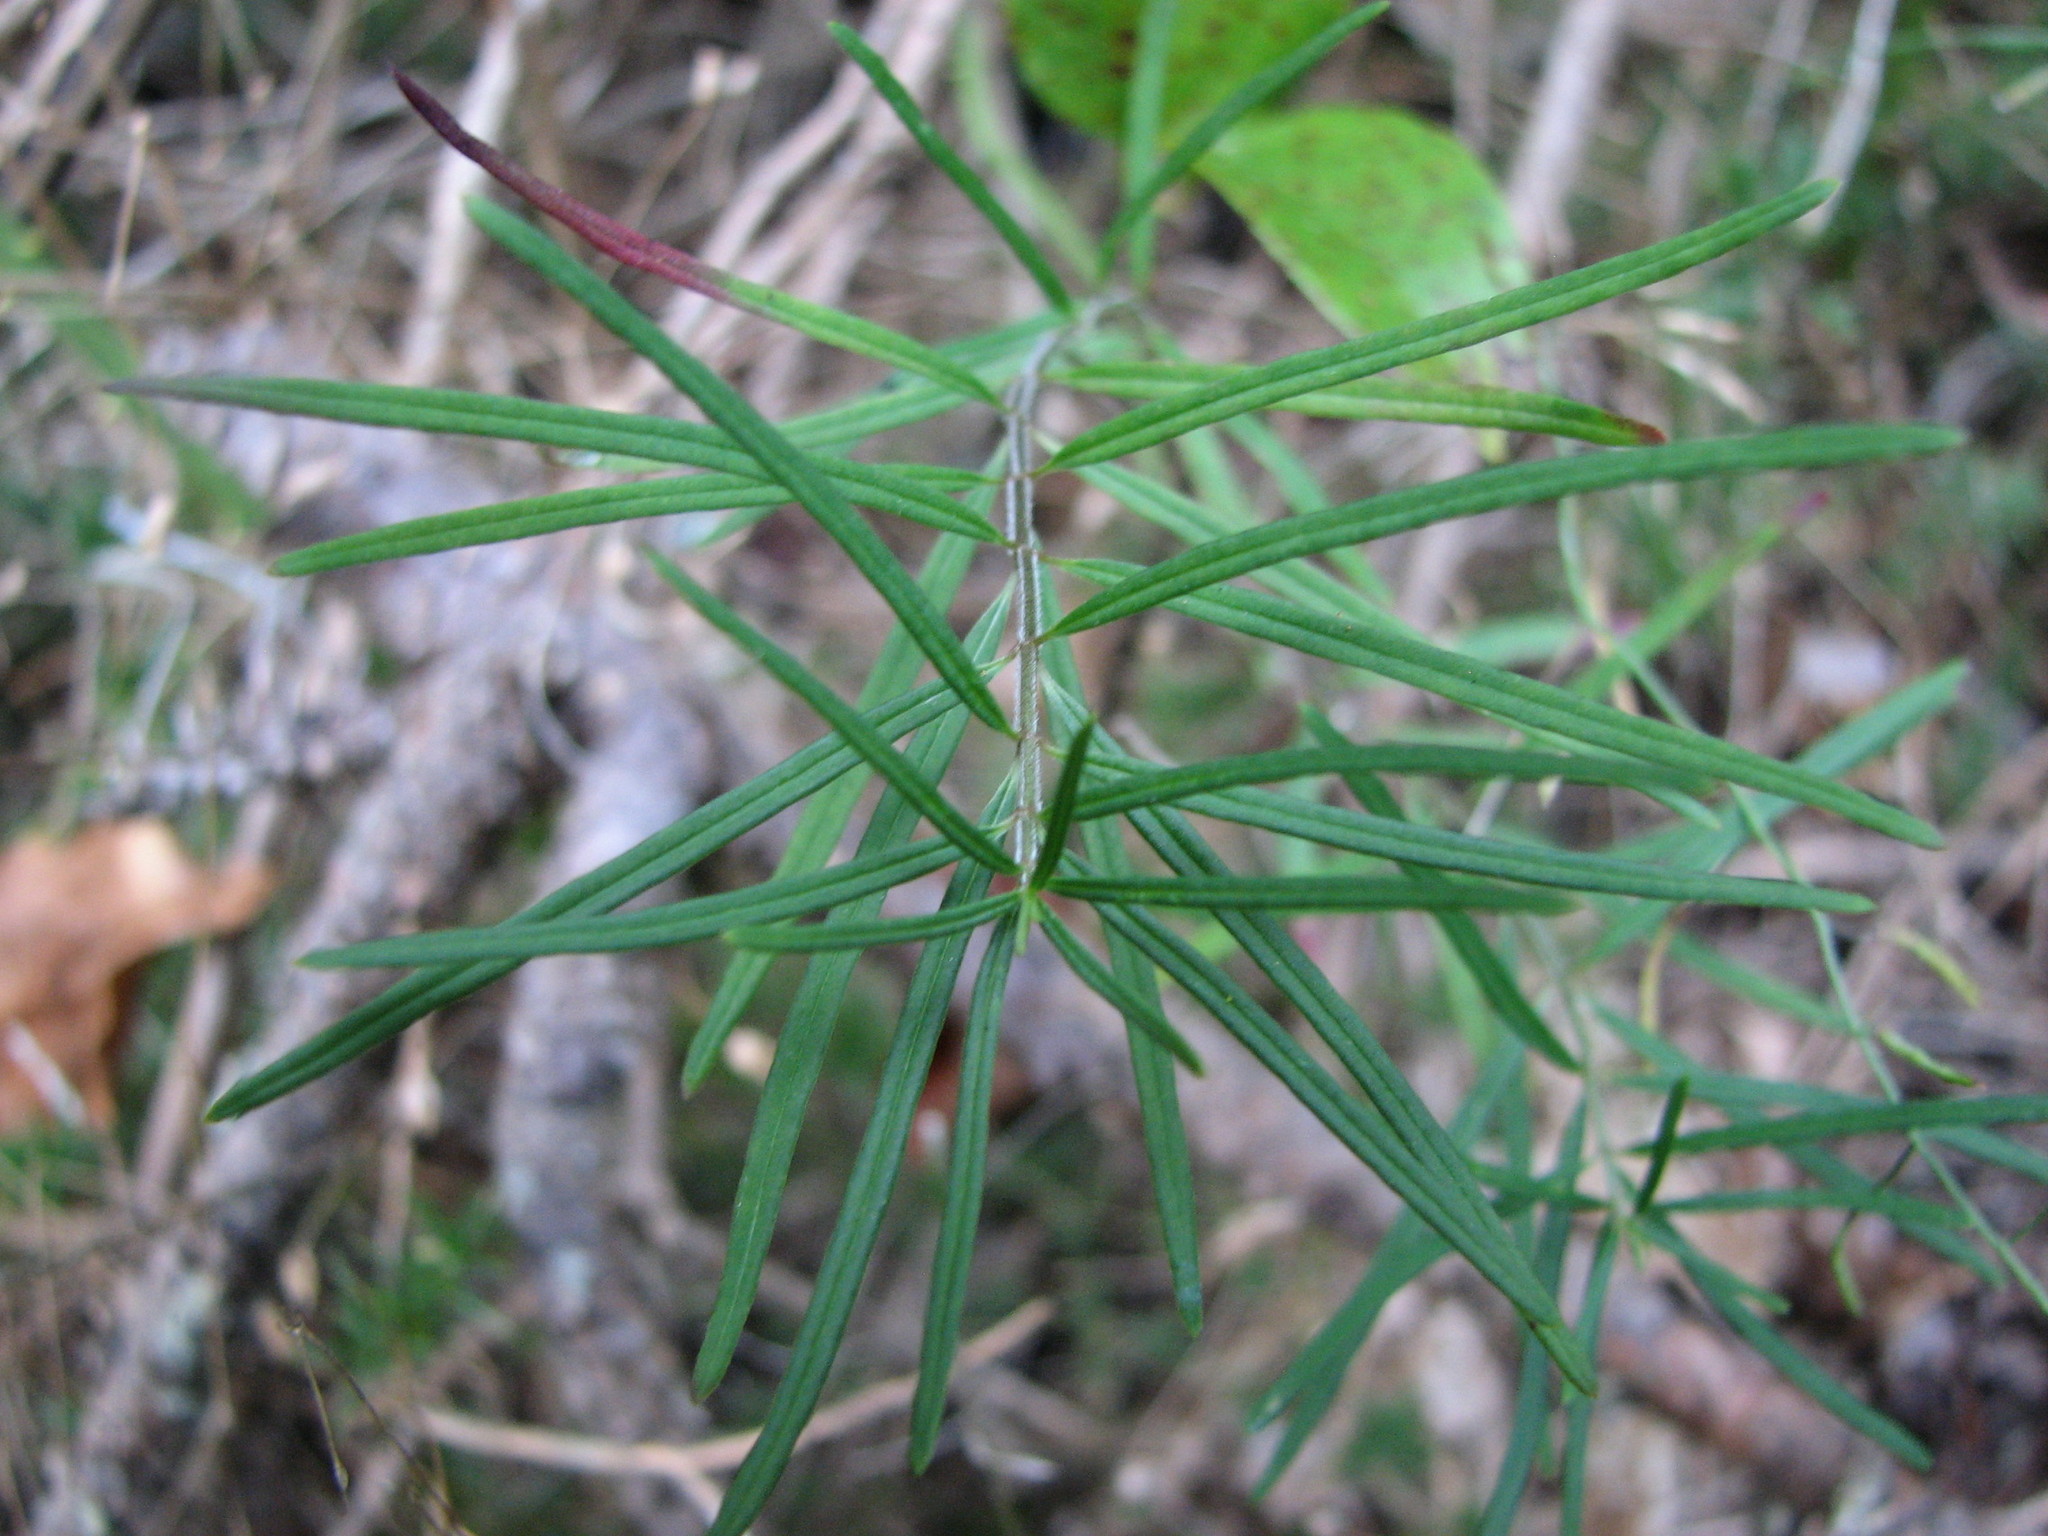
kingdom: Plantae
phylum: Tracheophyta
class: Magnoliopsida
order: Gentianales
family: Apocynaceae
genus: Asclepias
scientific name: Asclepias verticillata
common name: Eastern whorled milkweed
